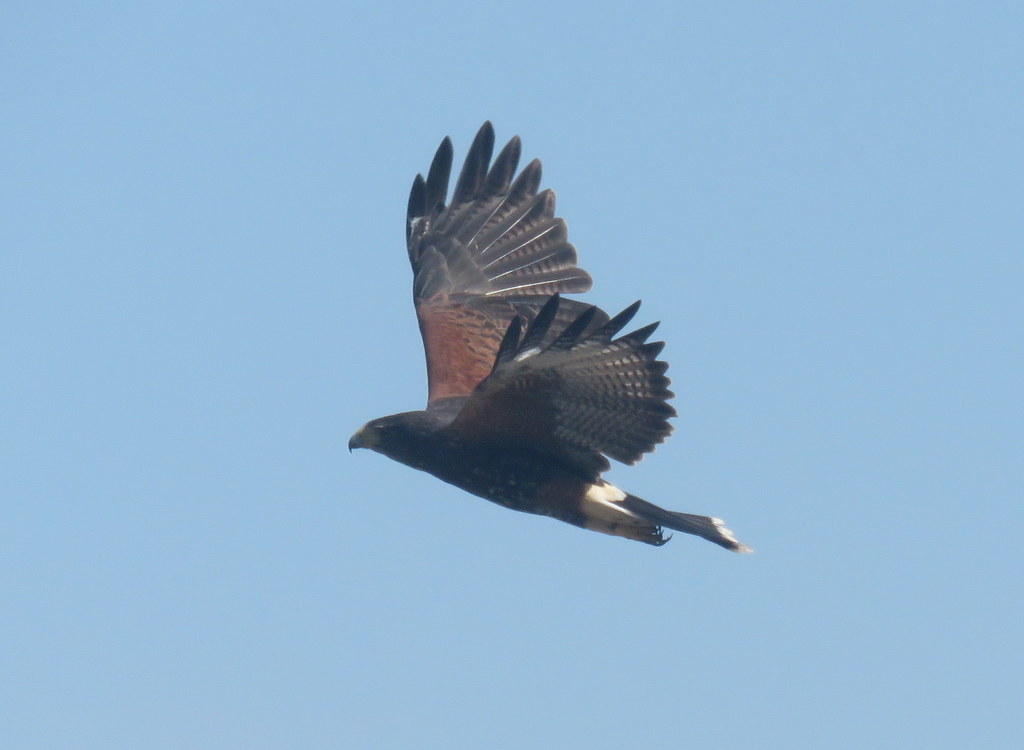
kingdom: Animalia
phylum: Chordata
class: Aves
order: Accipitriformes
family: Accipitridae
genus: Parabuteo
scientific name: Parabuteo unicinctus
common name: Harris's hawk
